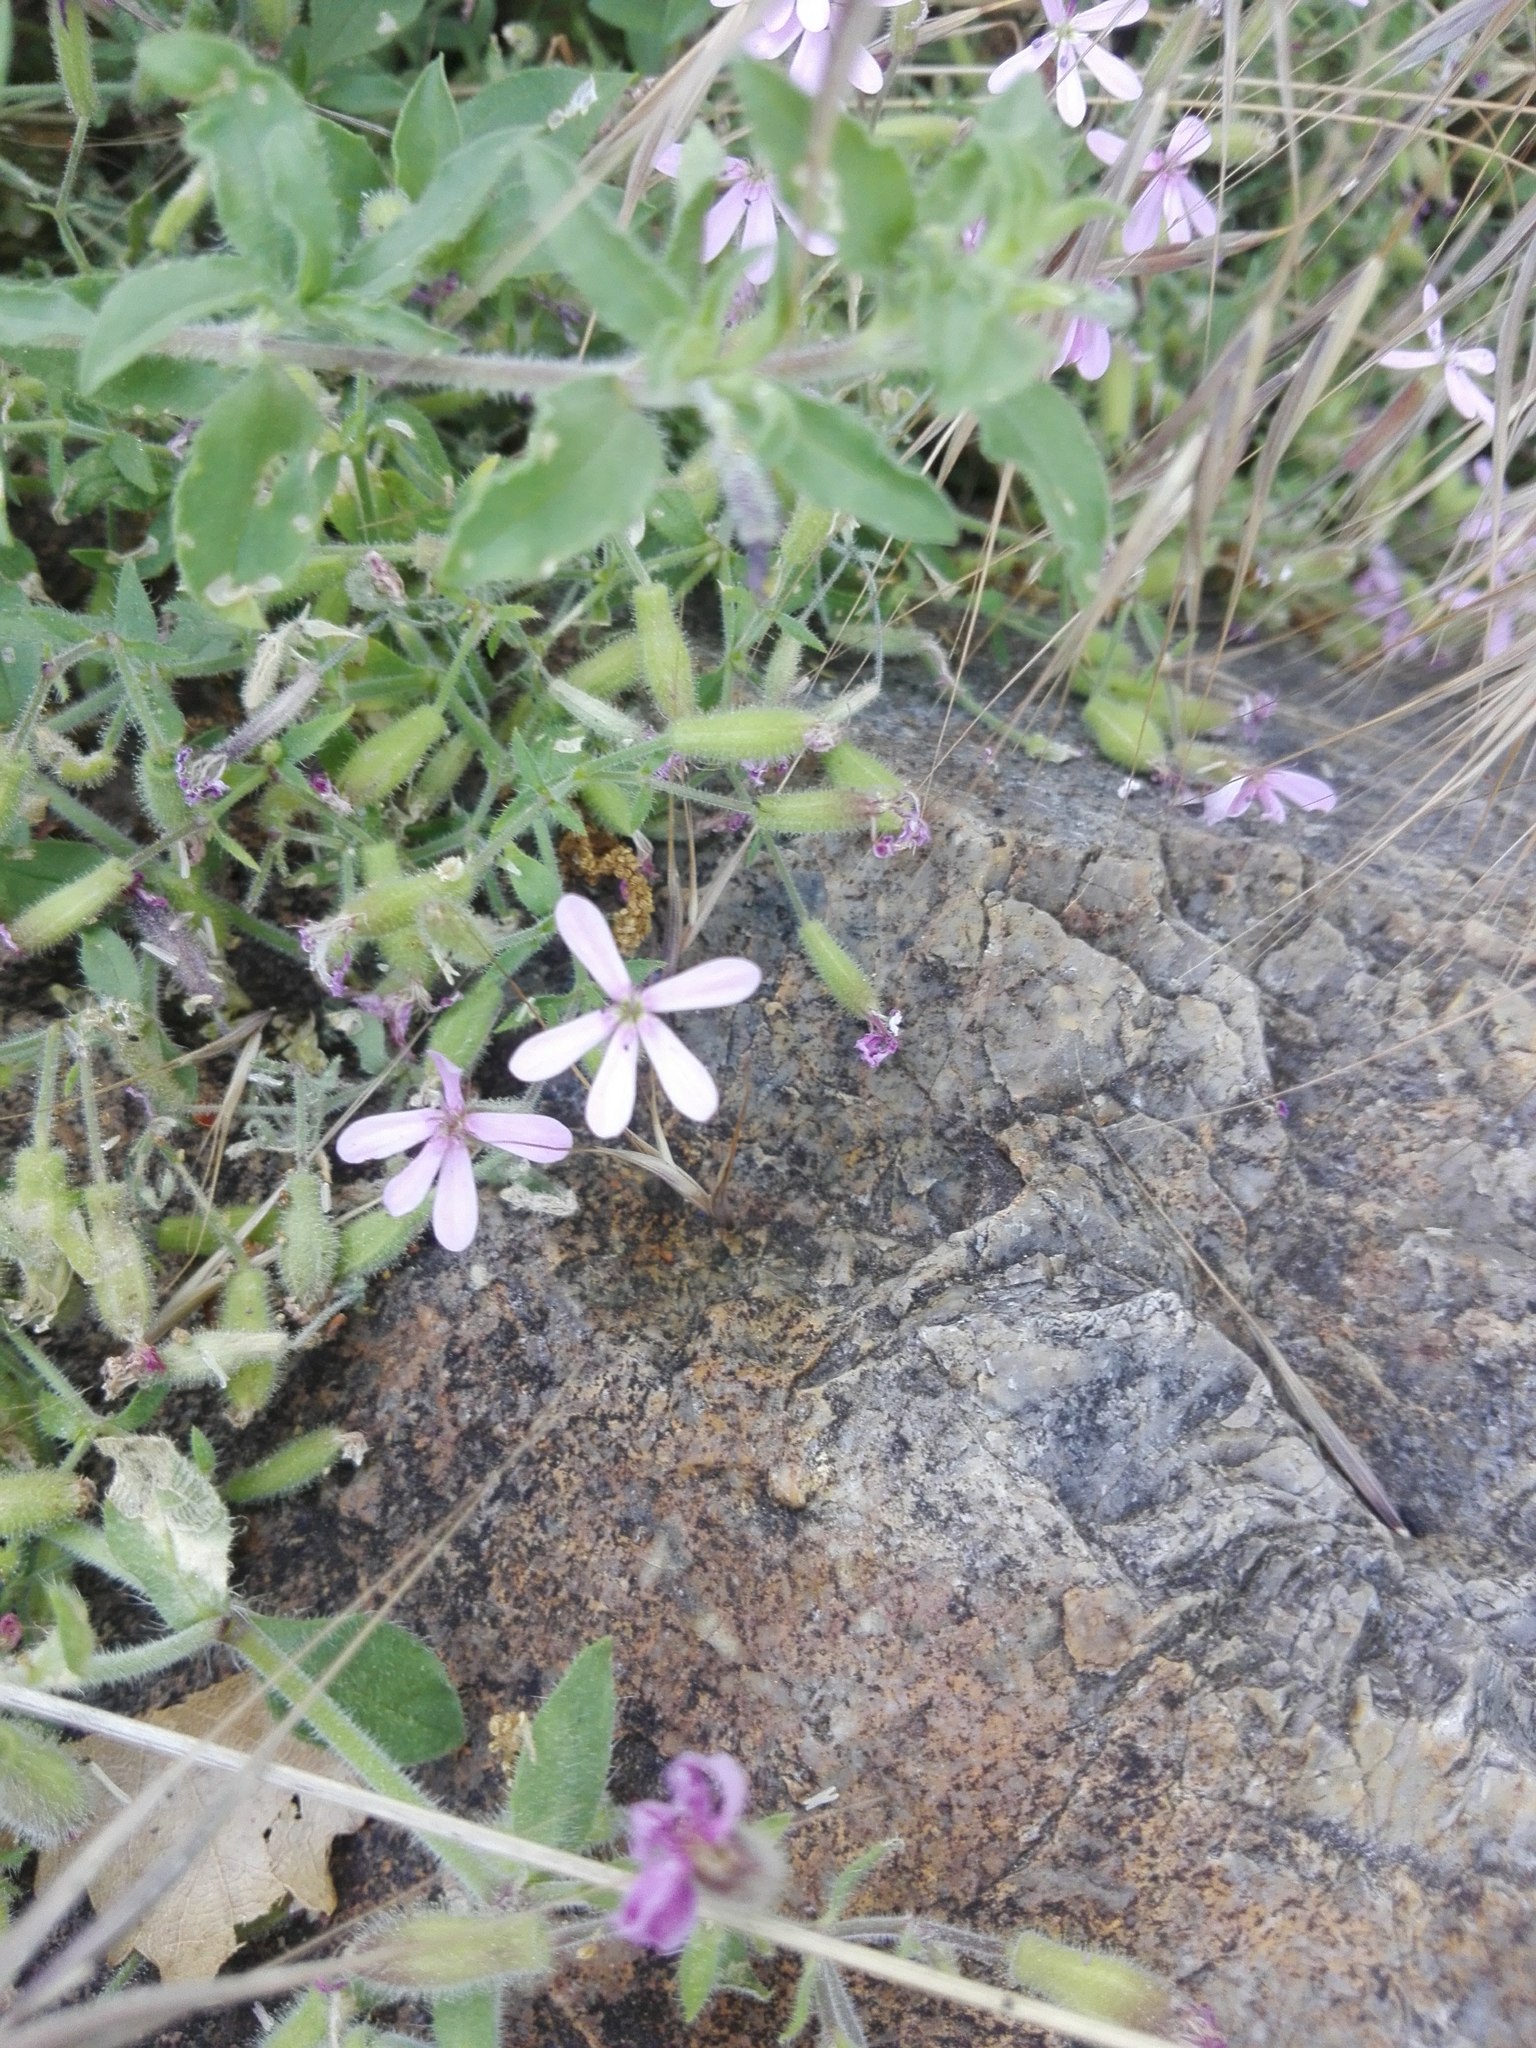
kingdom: Plantae
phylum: Tracheophyta
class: Magnoliopsida
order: Caryophyllales
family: Caryophyllaceae
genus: Saponaria
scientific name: Saponaria ocymoides
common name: Rock soapwort
